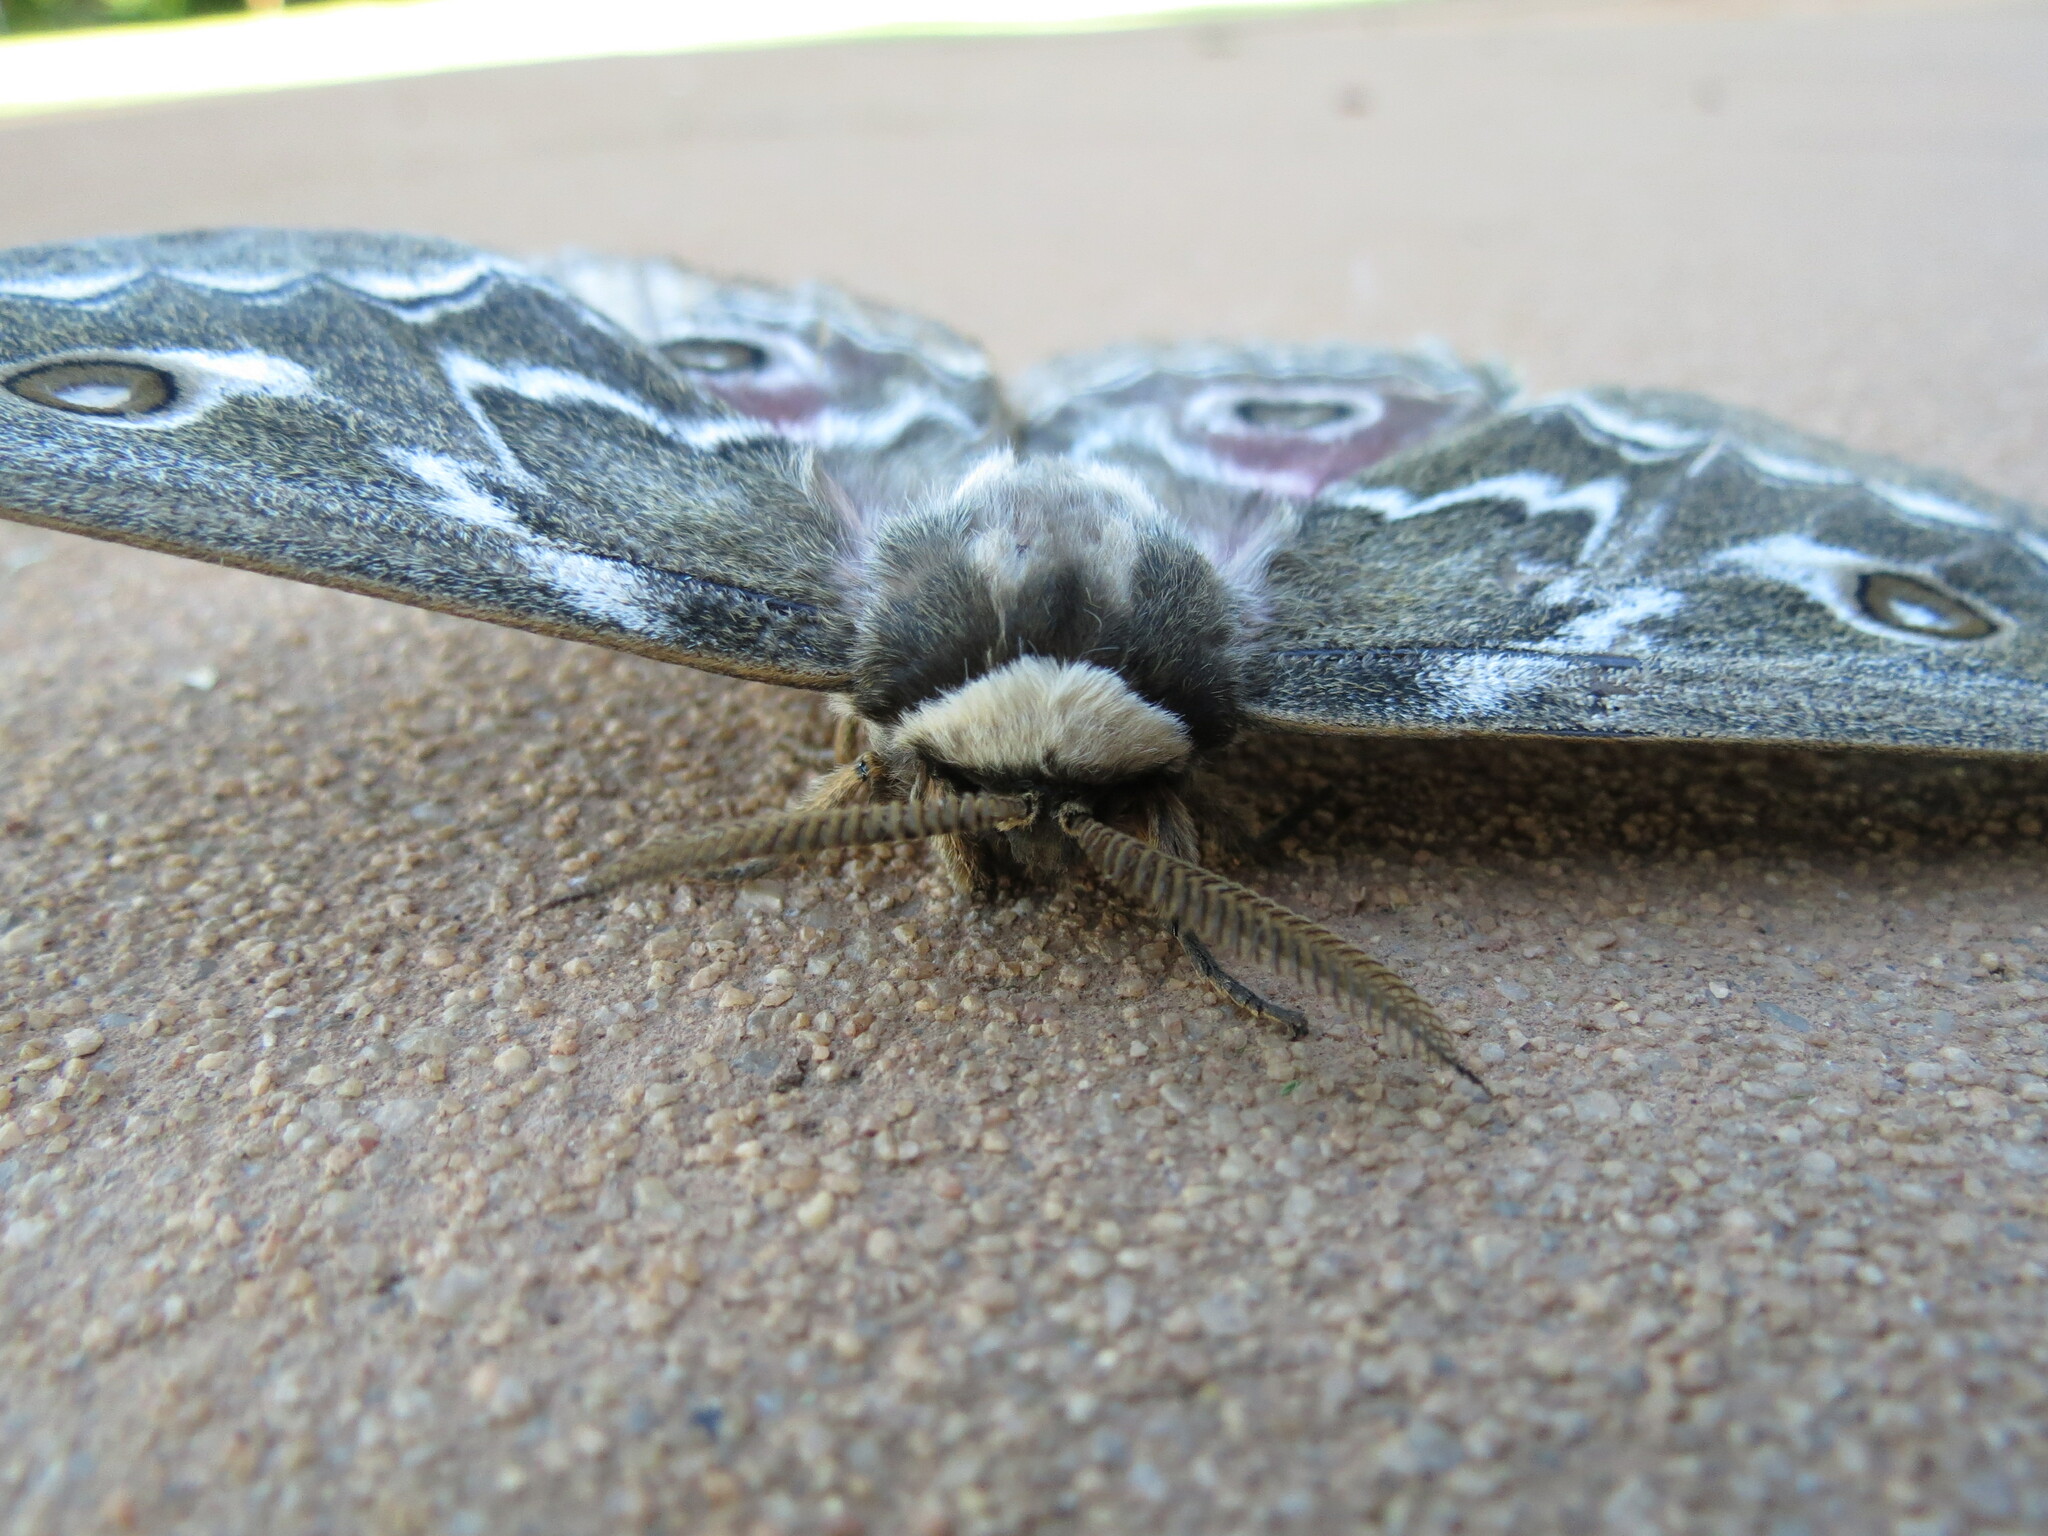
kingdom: Animalia
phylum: Arthropoda
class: Insecta
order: Lepidoptera
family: Saturniidae
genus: Gonimbrasia
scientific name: Gonimbrasia tyrrhea
